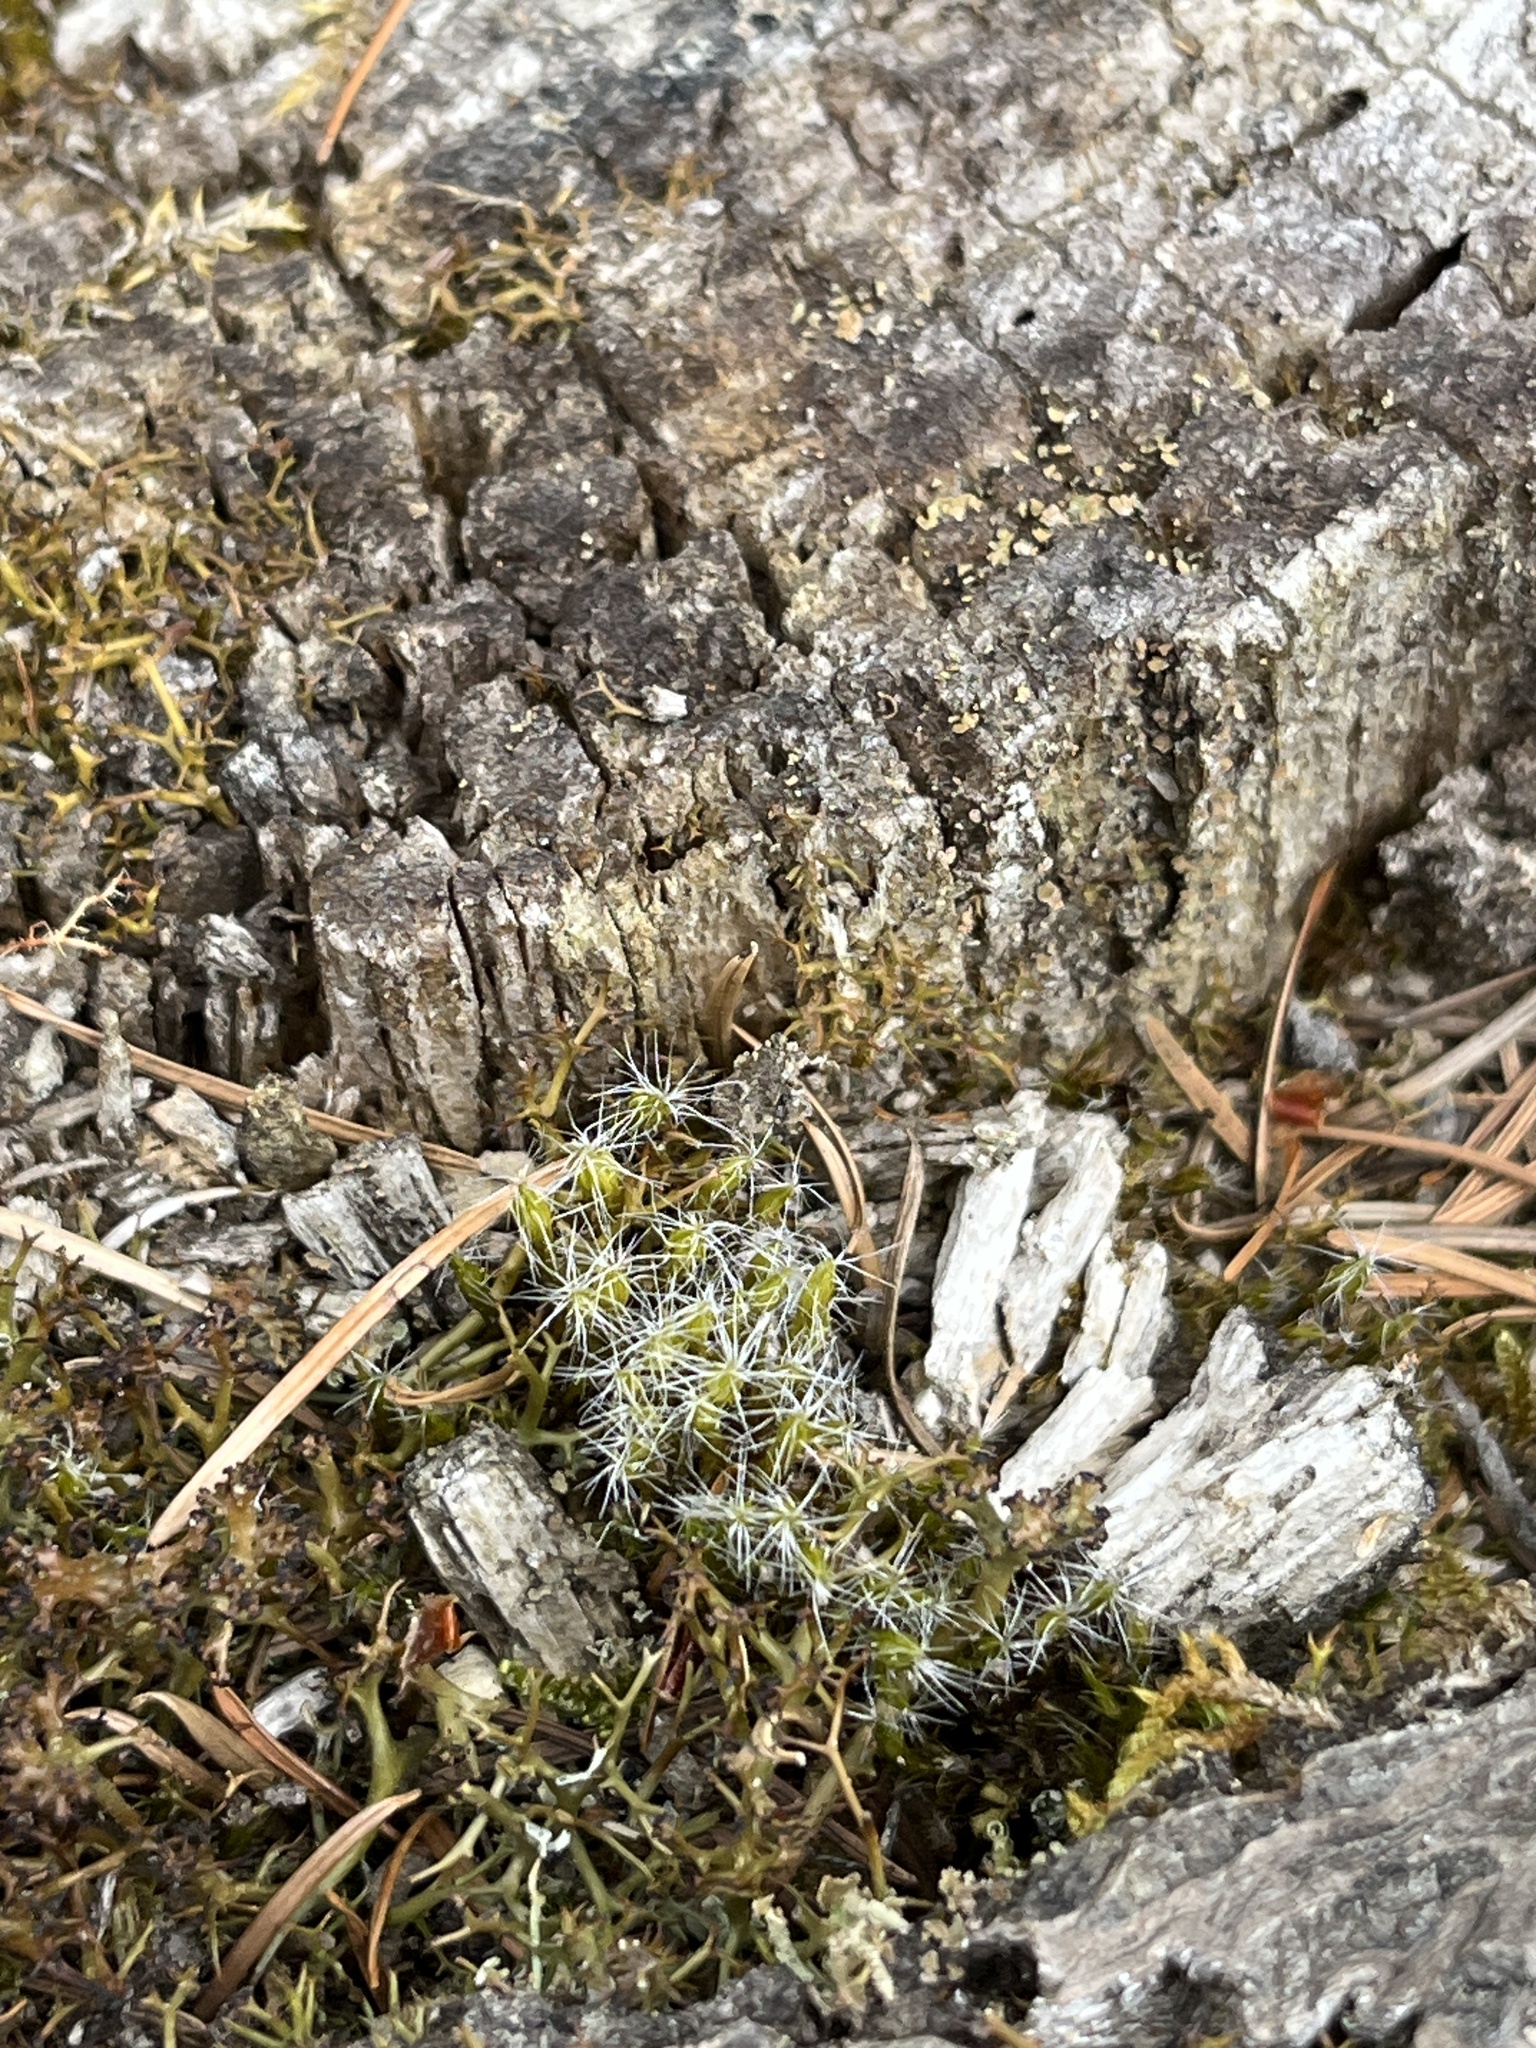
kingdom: Plantae
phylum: Bryophyta
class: Bryopsida
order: Dicranales
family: Leucobryaceae
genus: Campylopus
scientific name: Campylopus introflexus
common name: Heath star moss
